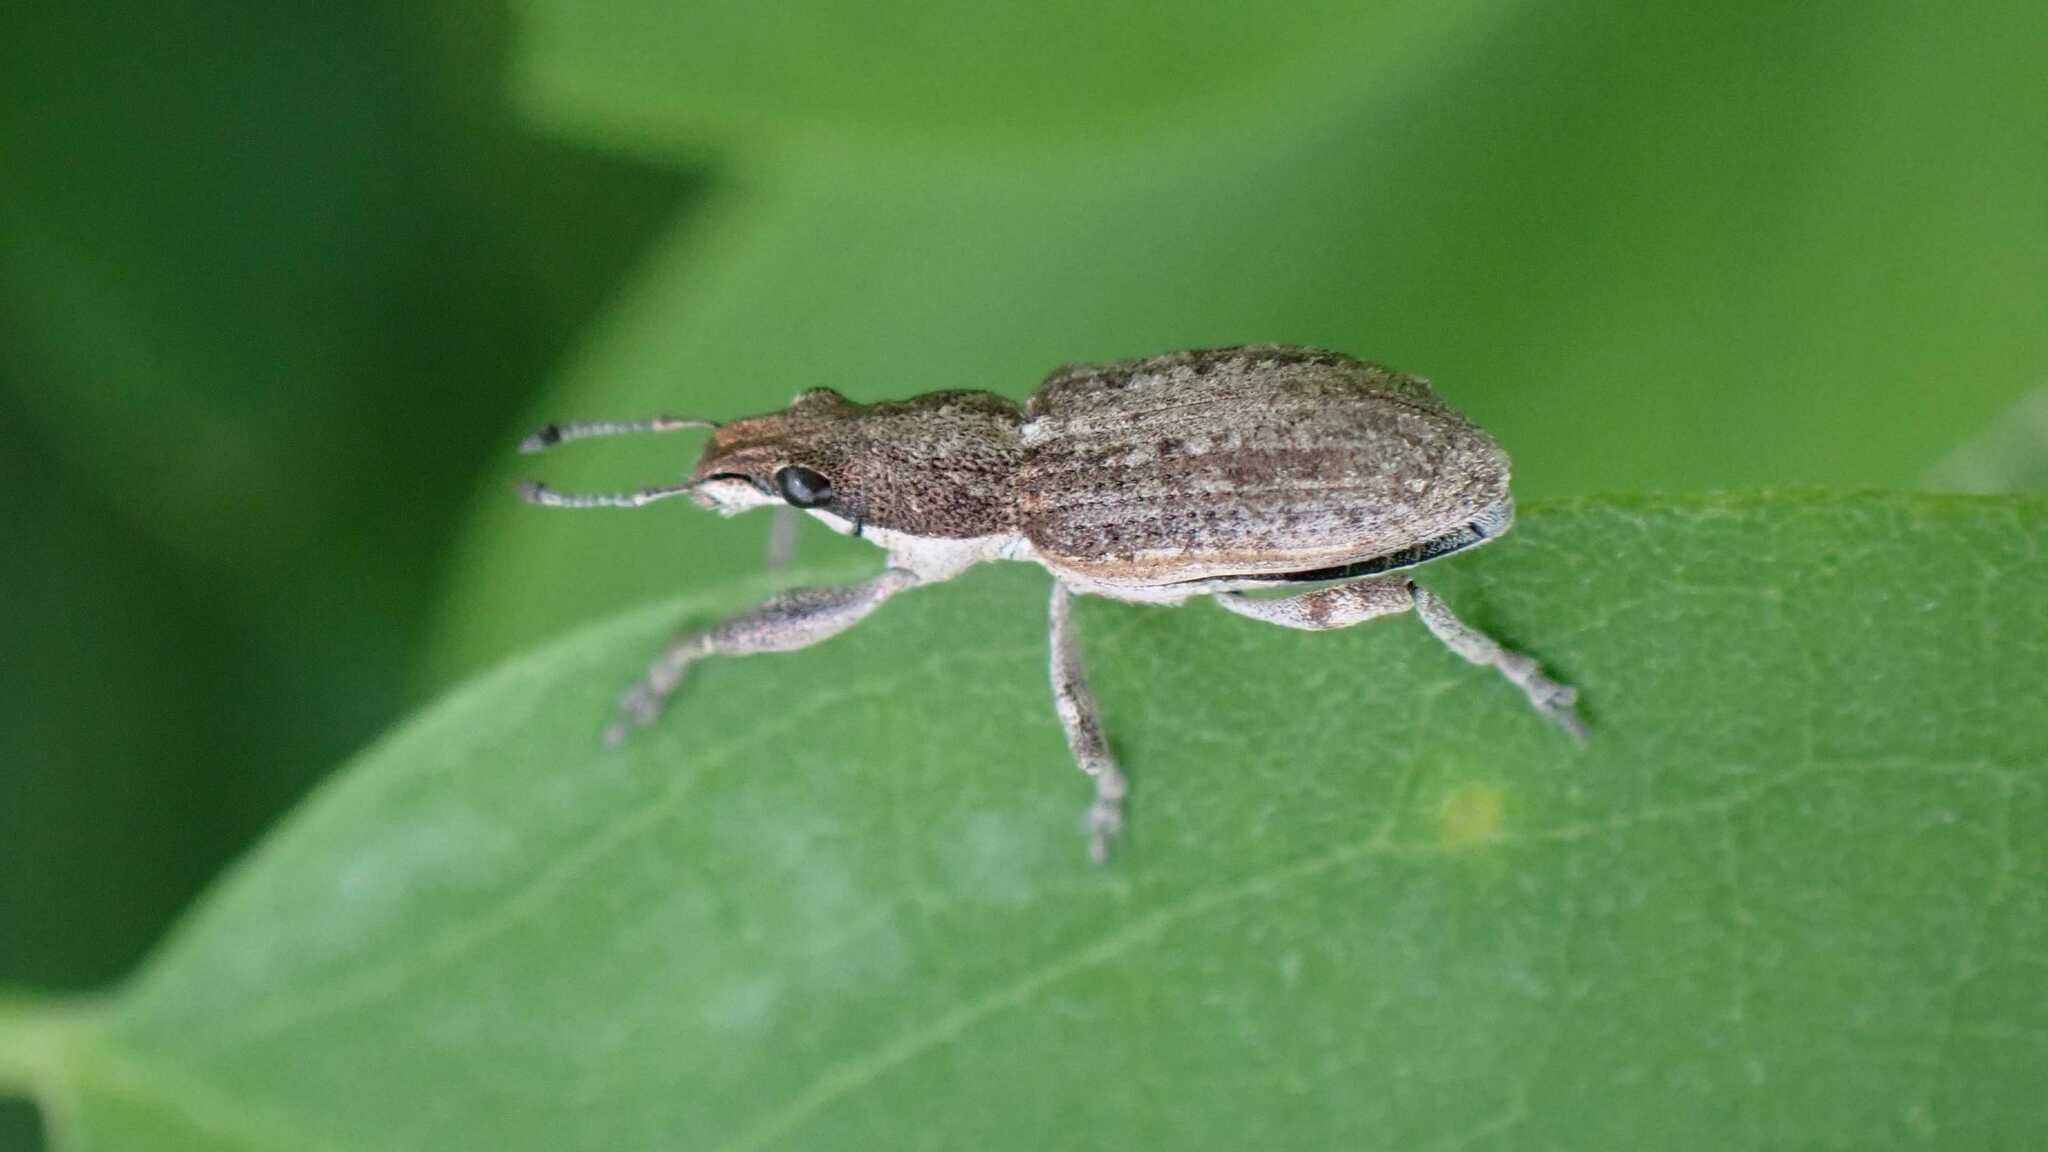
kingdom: Animalia
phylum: Arthropoda
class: Insecta
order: Coleoptera
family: Curculionidae
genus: Charagmus
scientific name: Charagmus griseus
